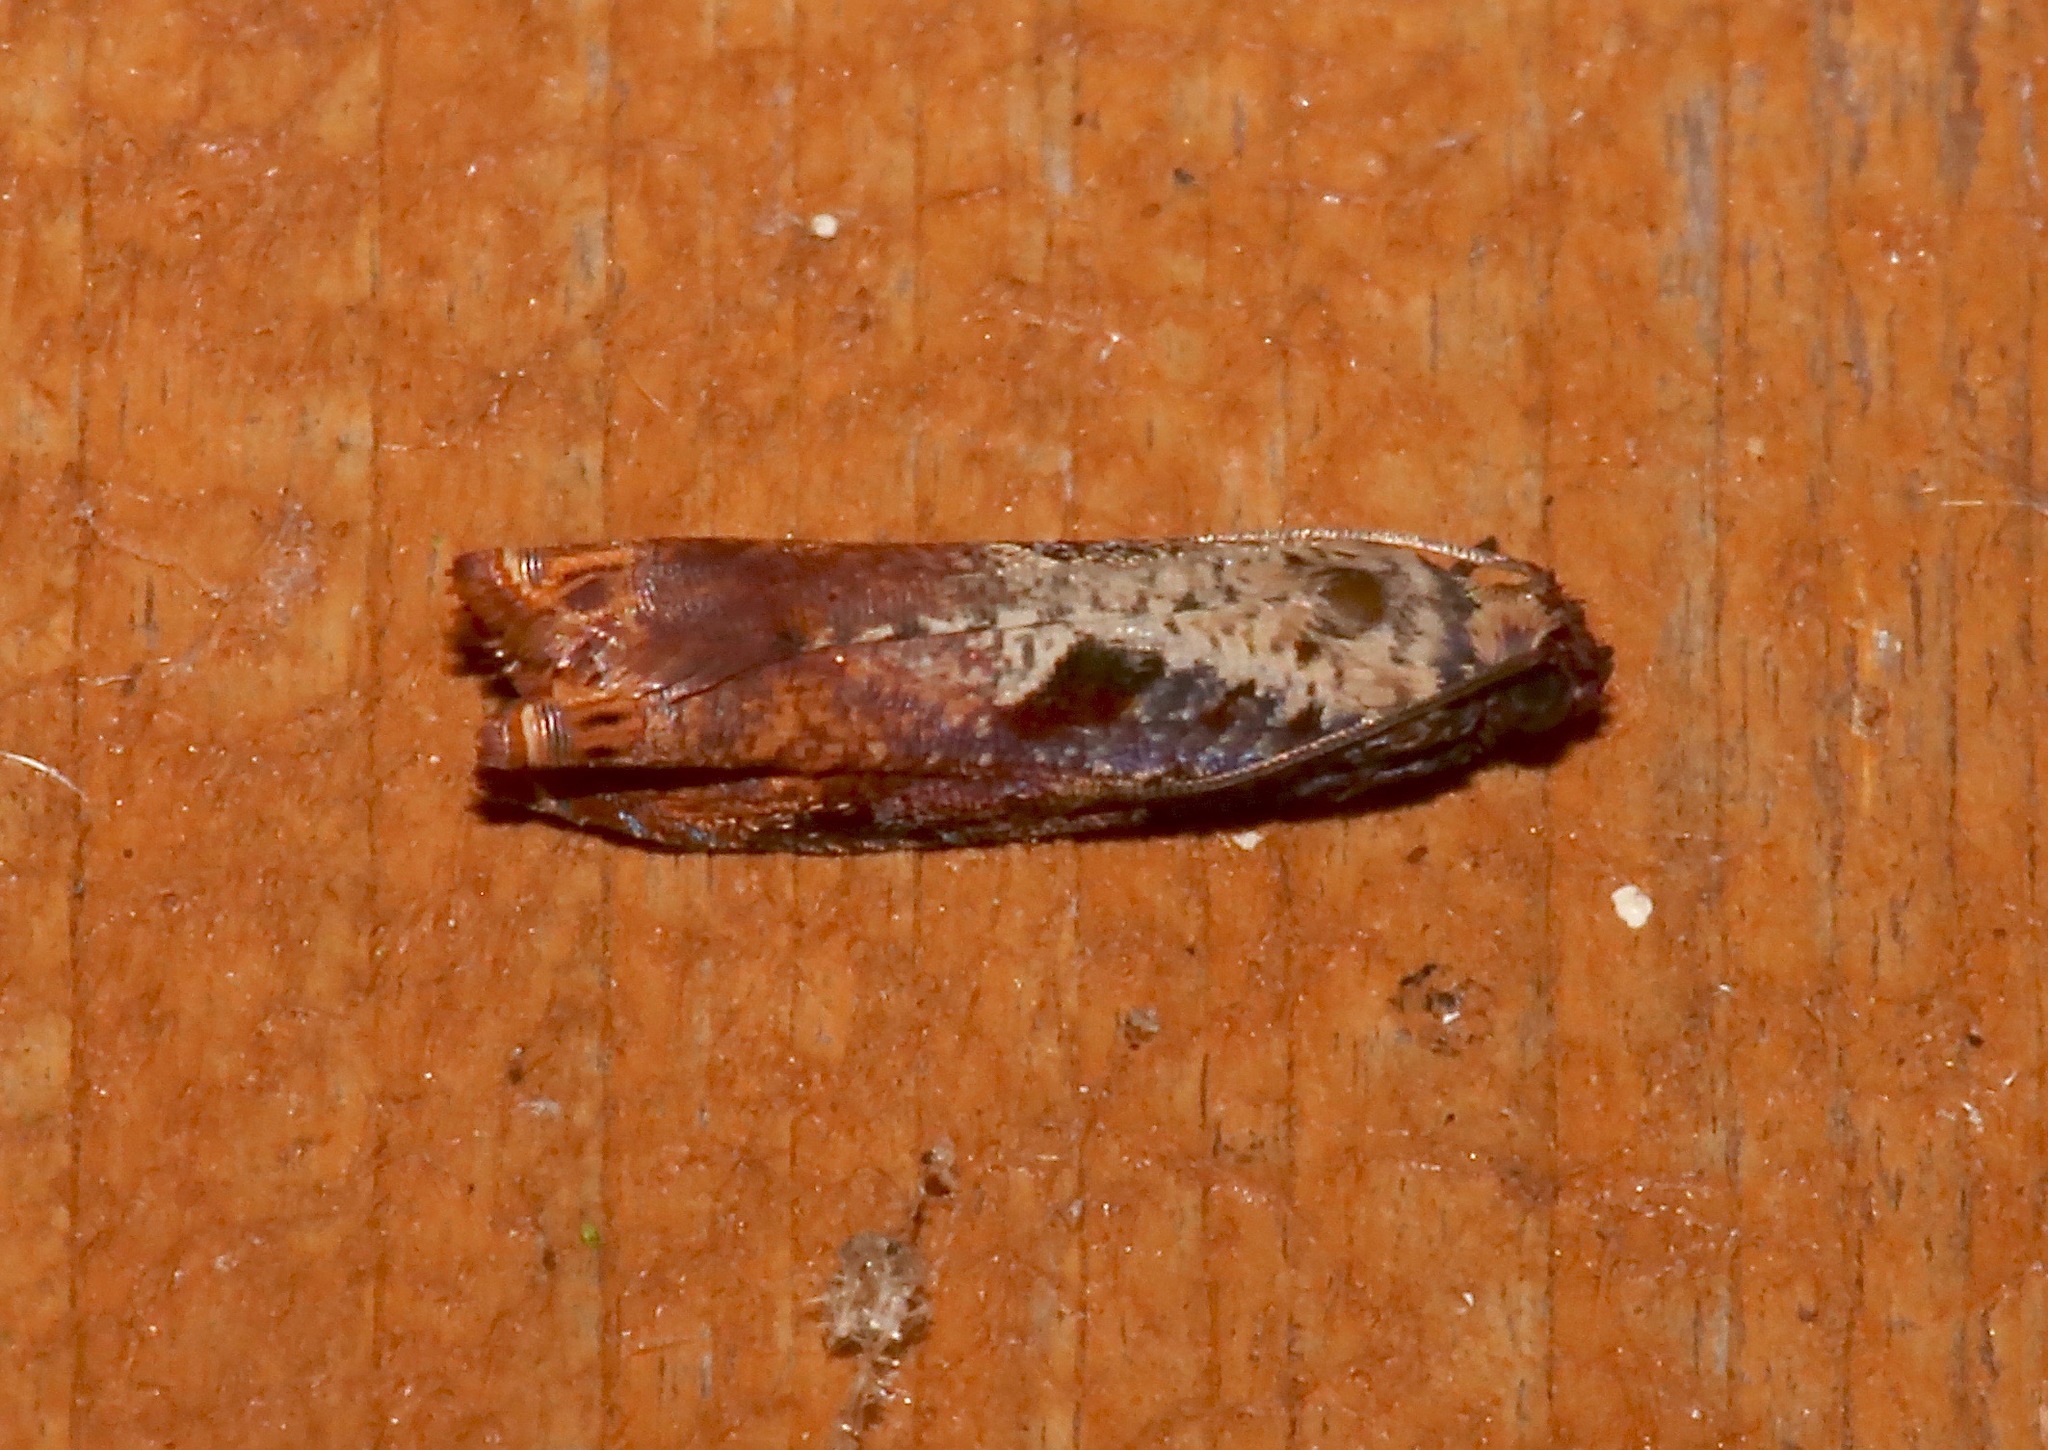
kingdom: Animalia
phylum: Arthropoda
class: Insecta
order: Lepidoptera
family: Tortricidae
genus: Episimus
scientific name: Episimus tyrius
